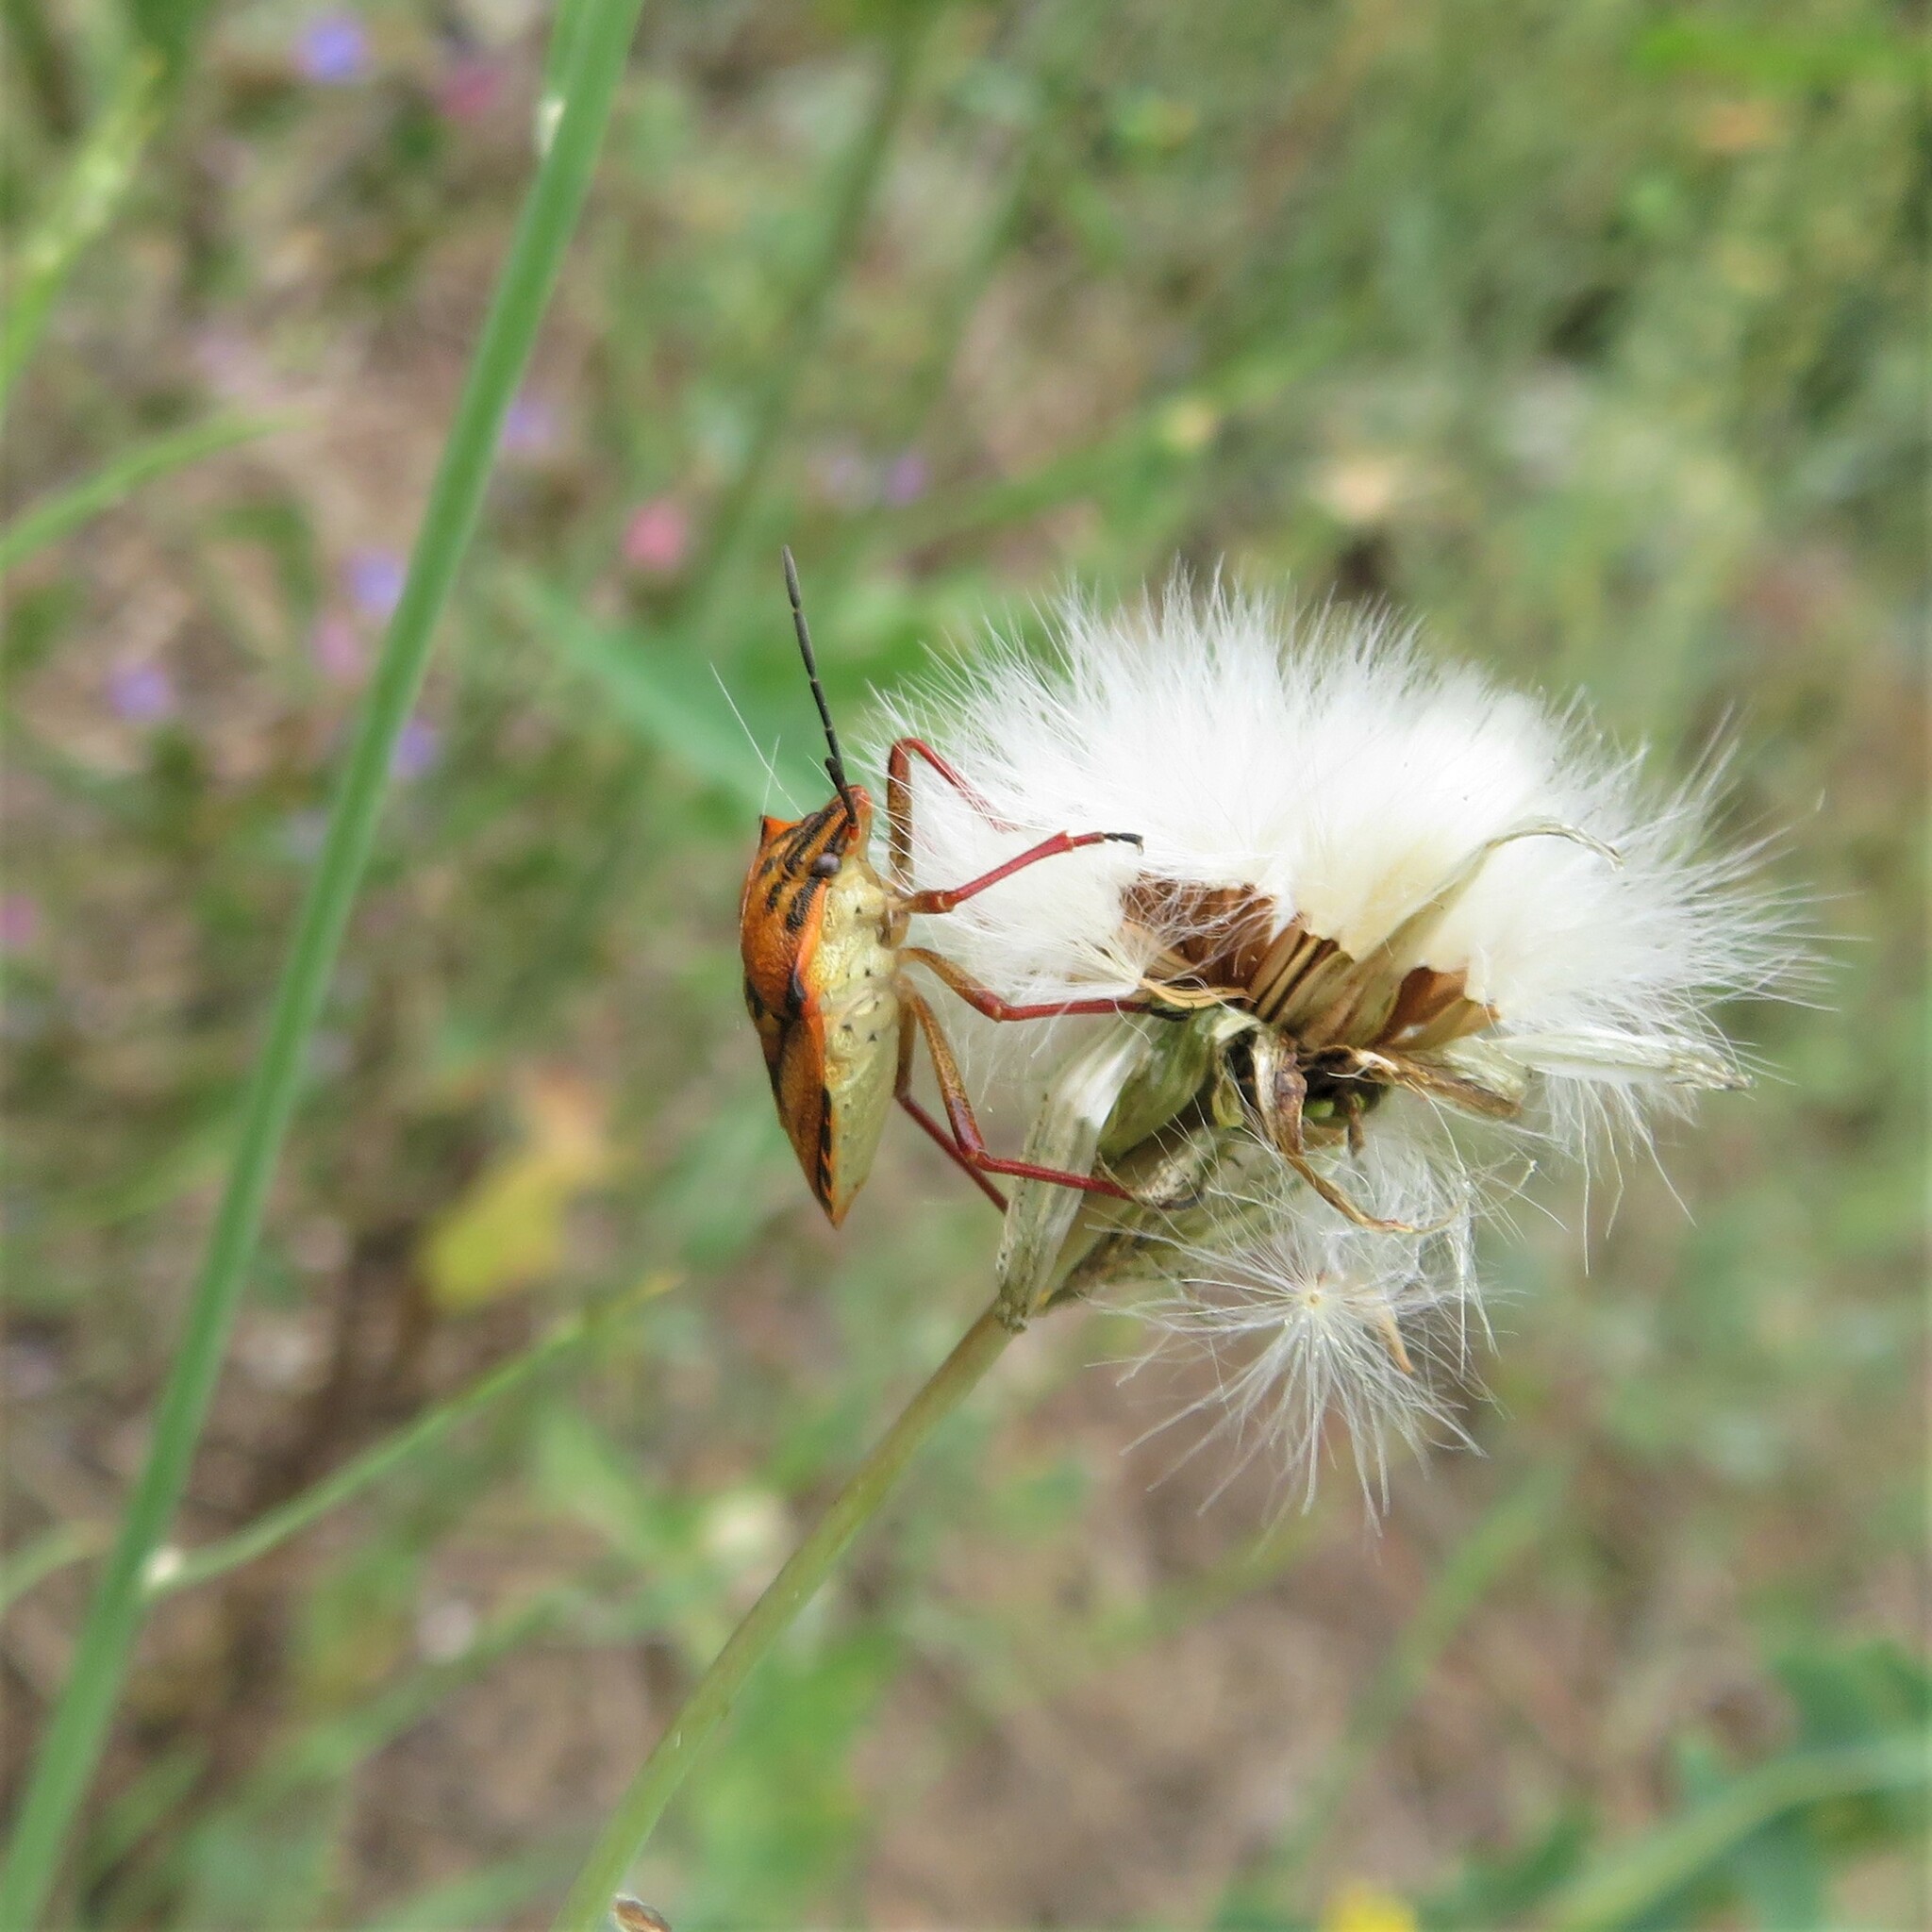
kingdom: Animalia
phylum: Arthropoda
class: Insecta
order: Hemiptera
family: Pentatomidae
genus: Carpocoris
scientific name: Carpocoris mediterraneus
